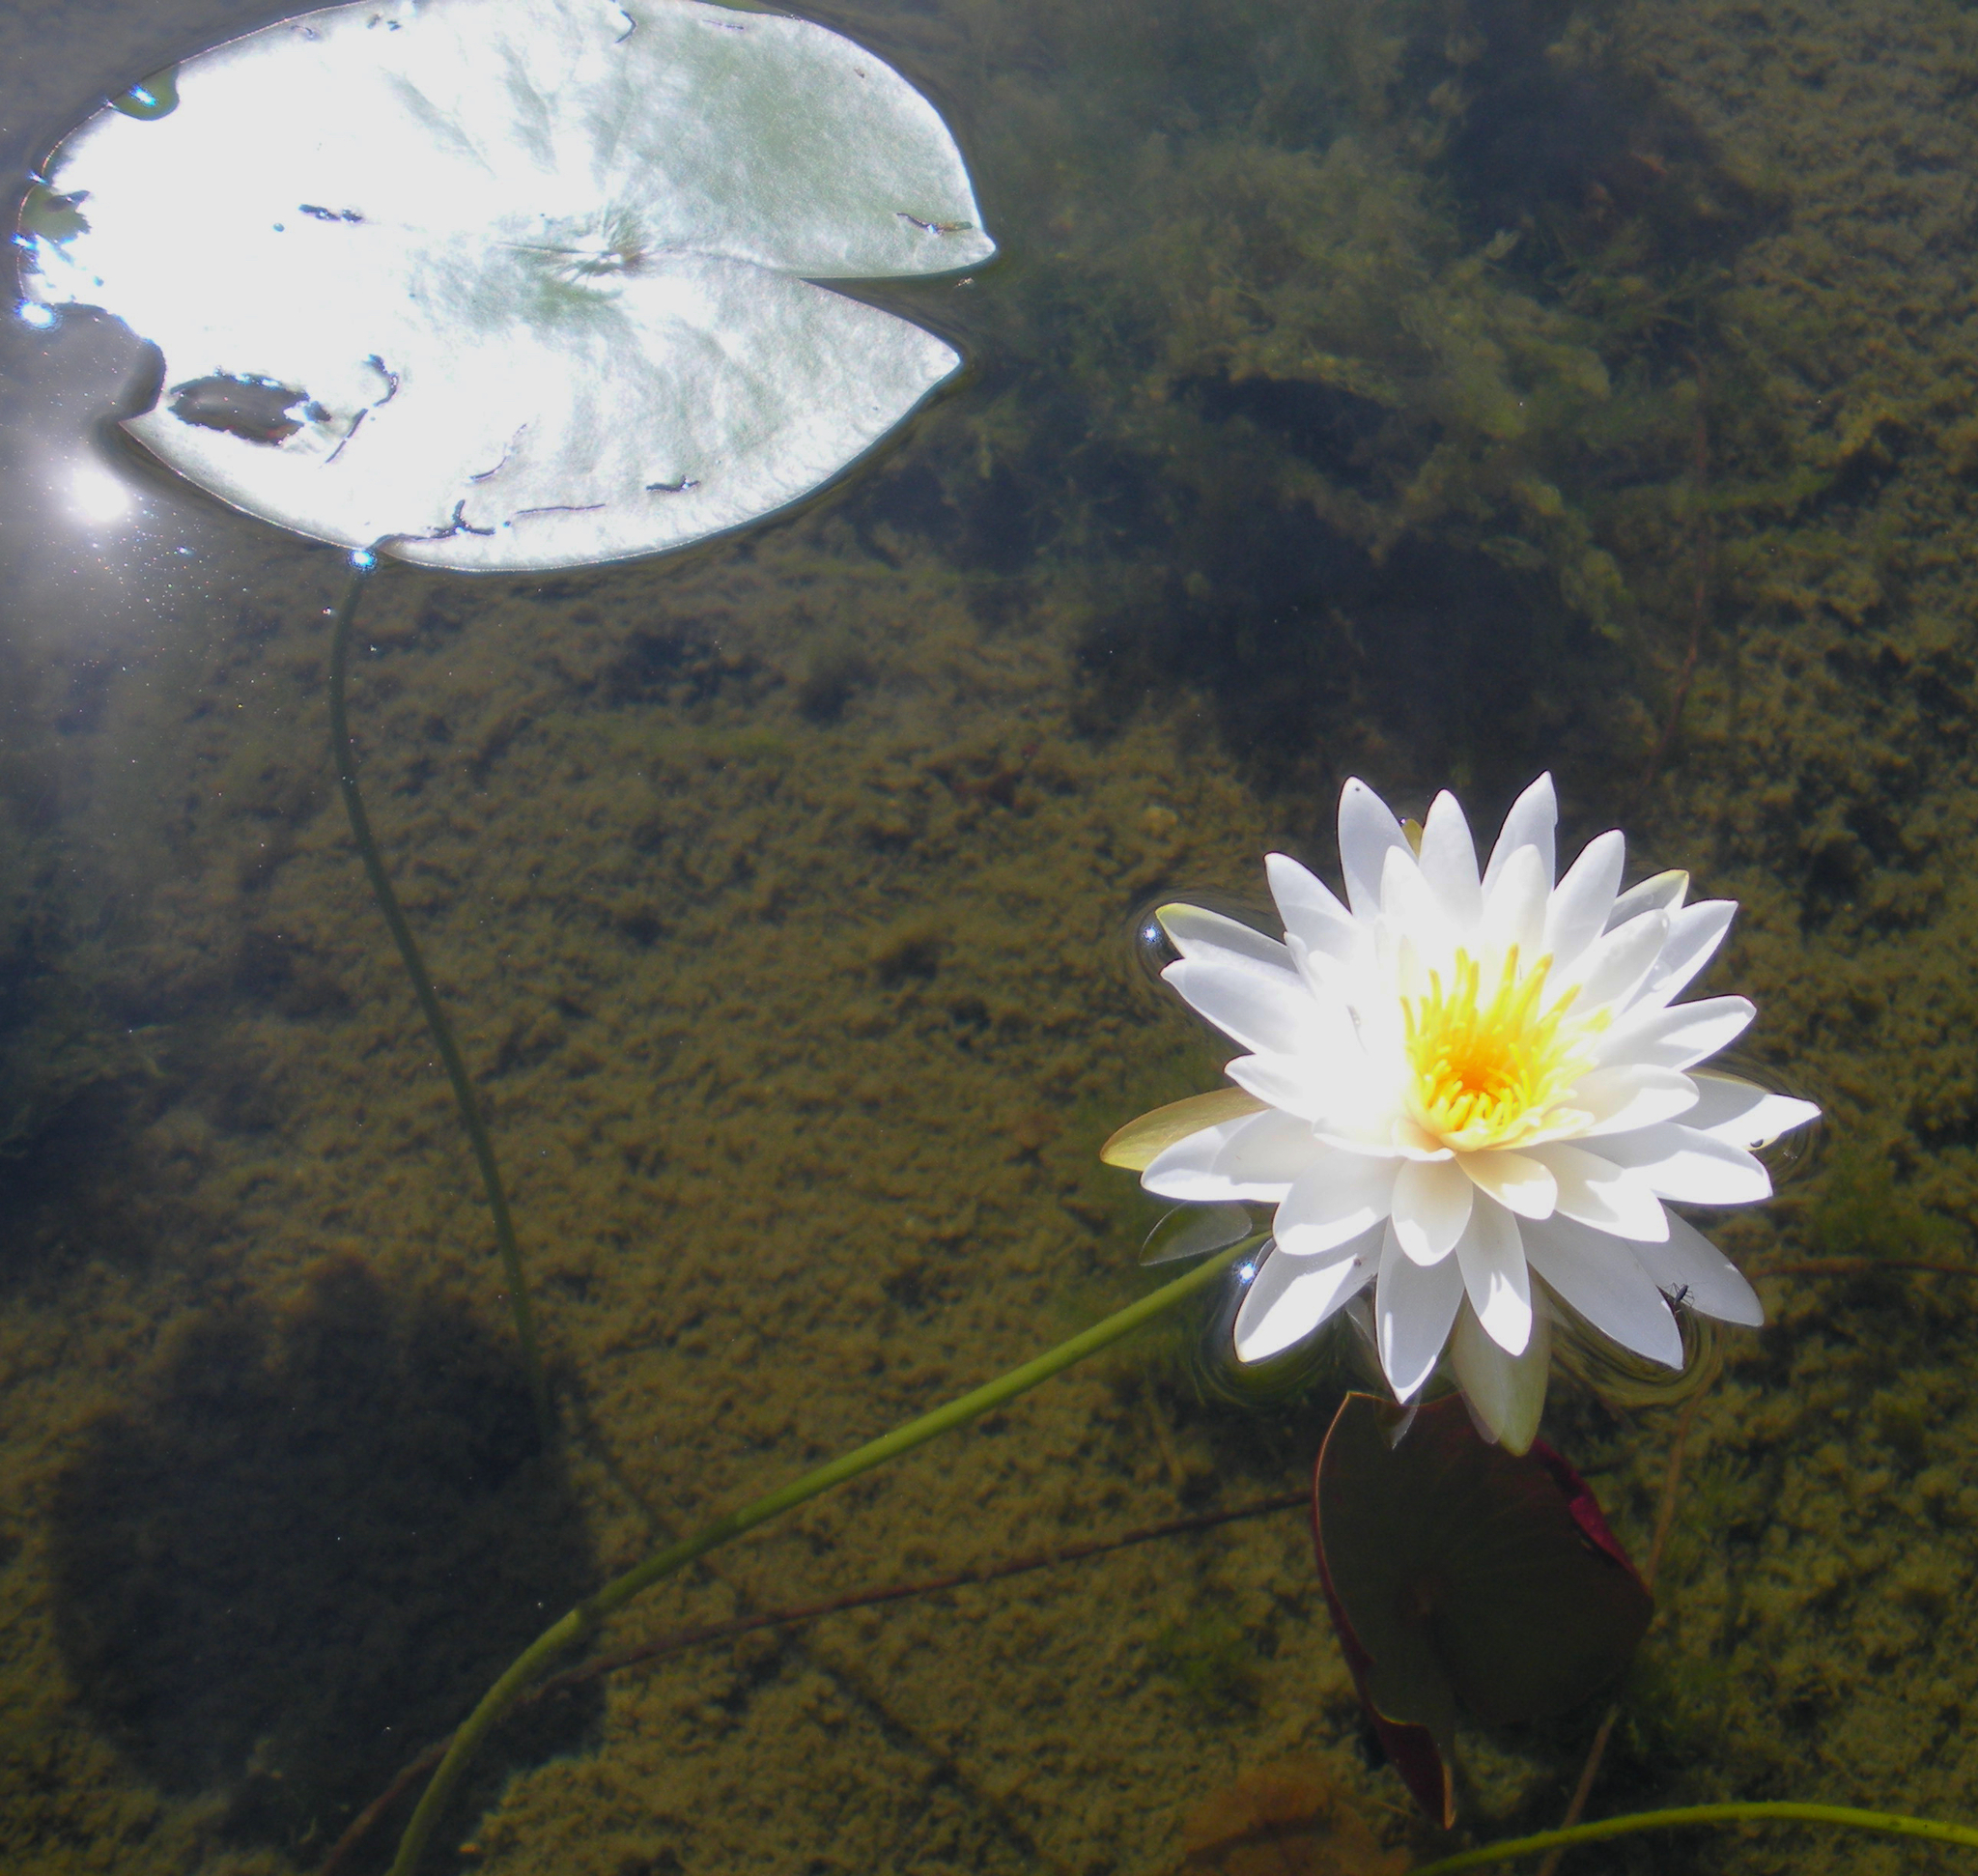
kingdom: Plantae
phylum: Tracheophyta
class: Magnoliopsida
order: Nymphaeales
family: Nymphaeaceae
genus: Nymphaea
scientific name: Nymphaea odorata
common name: Fragrant water-lily
